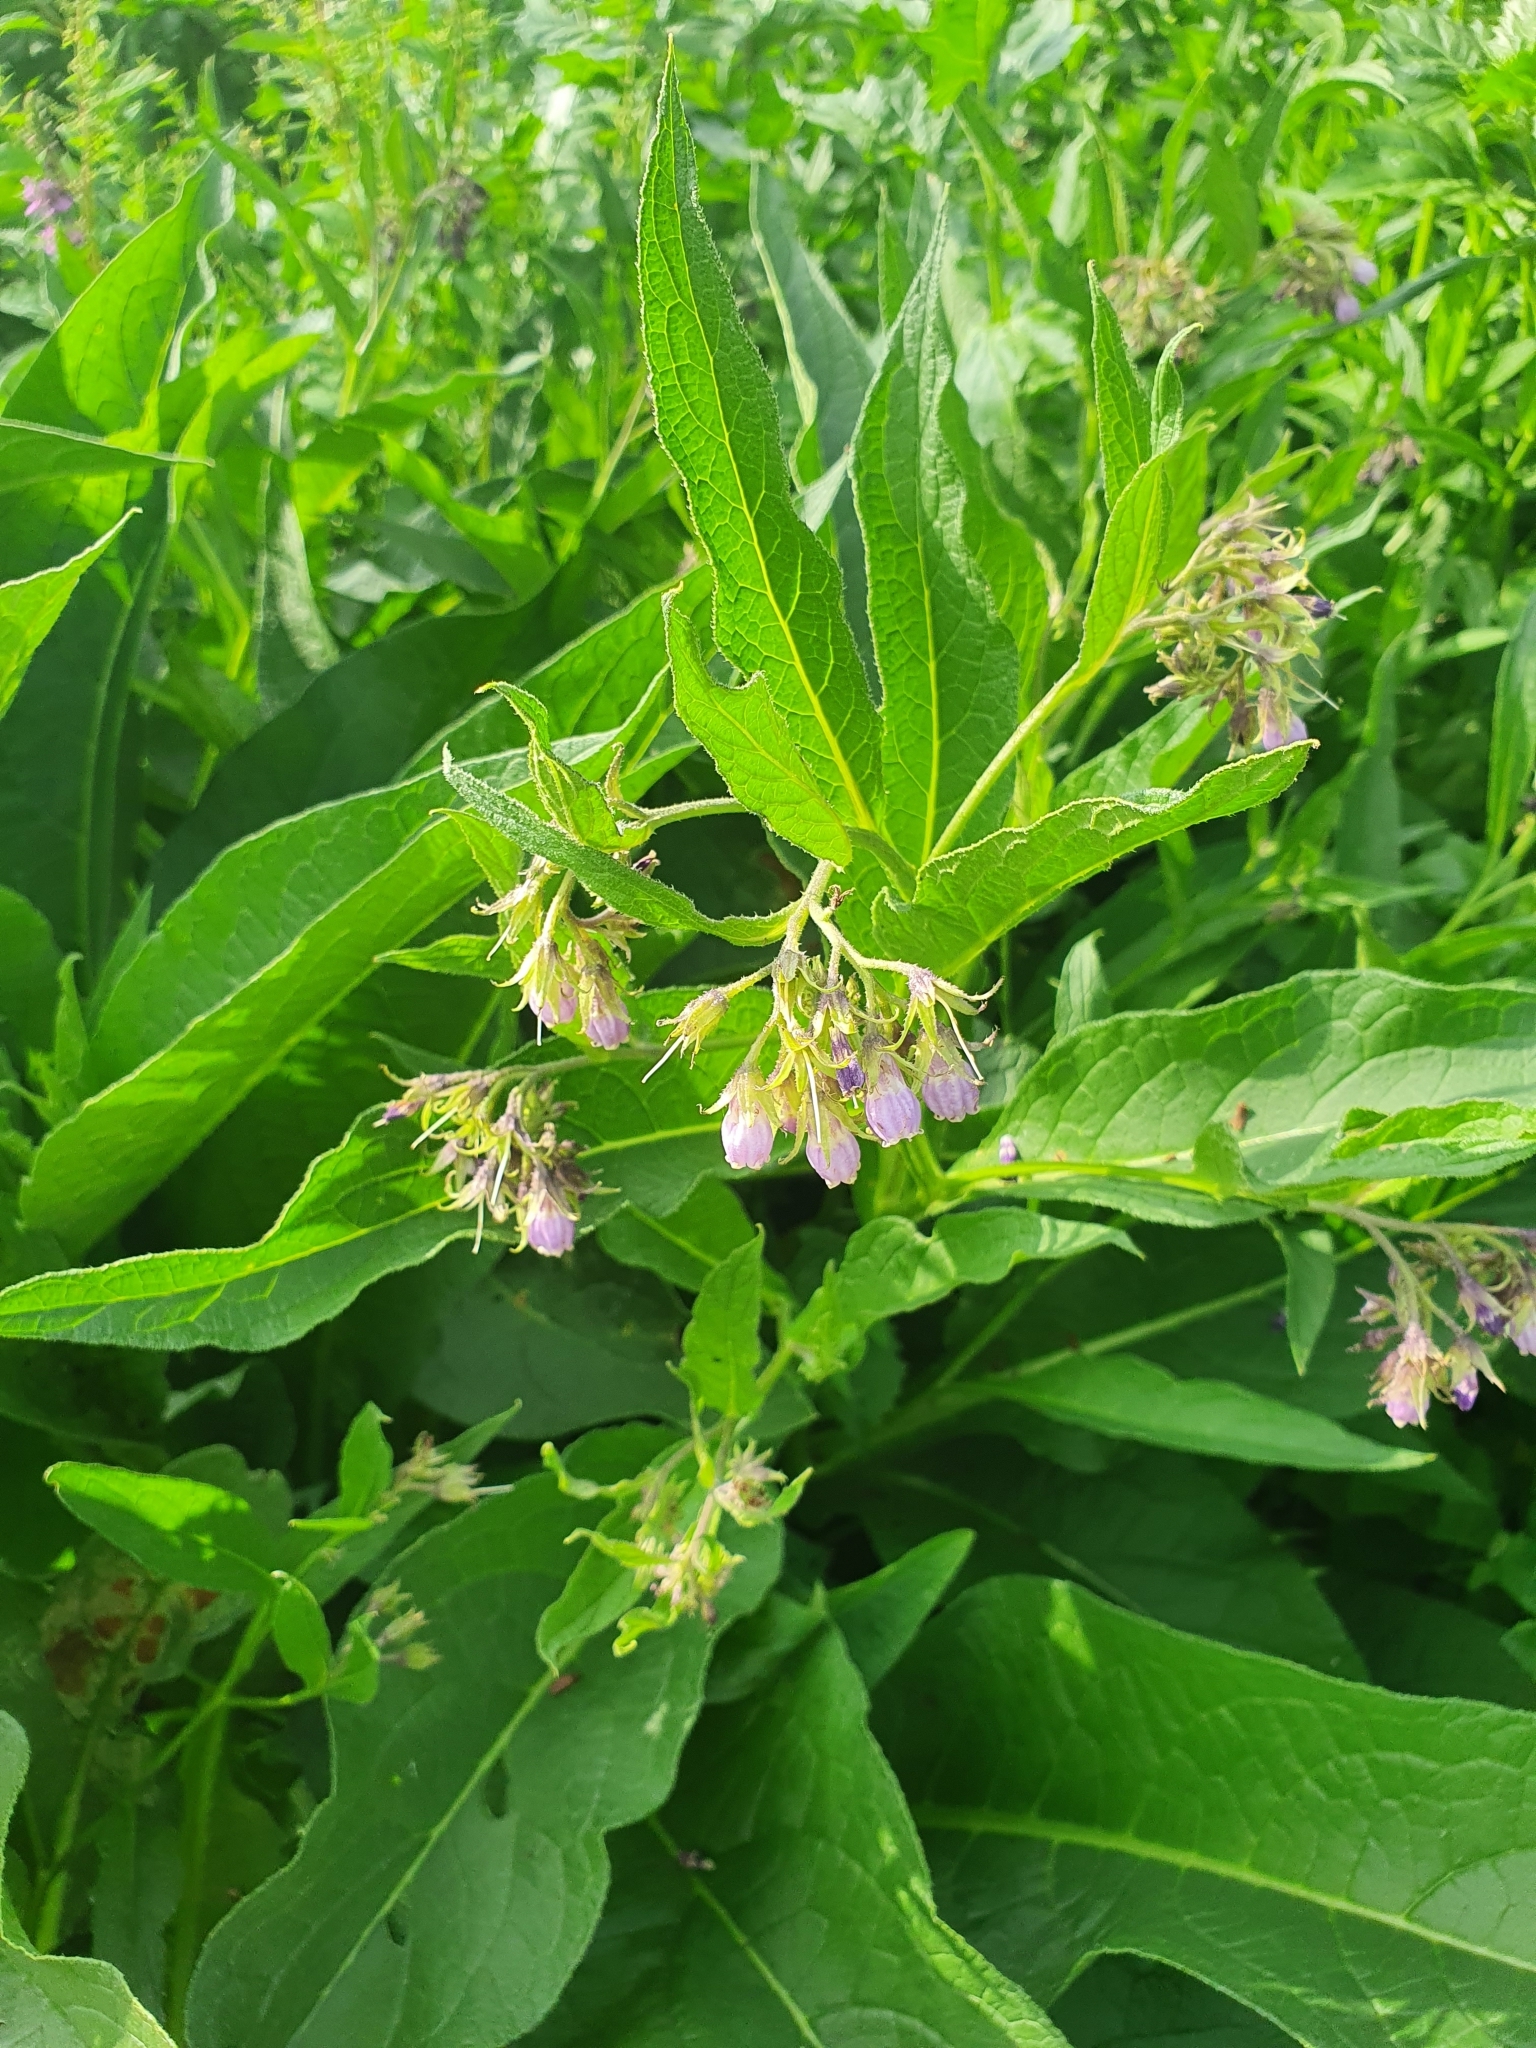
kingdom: Plantae
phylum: Tracheophyta
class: Magnoliopsida
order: Boraginales
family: Boraginaceae
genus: Symphytum
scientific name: Symphytum officinale
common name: Common comfrey
